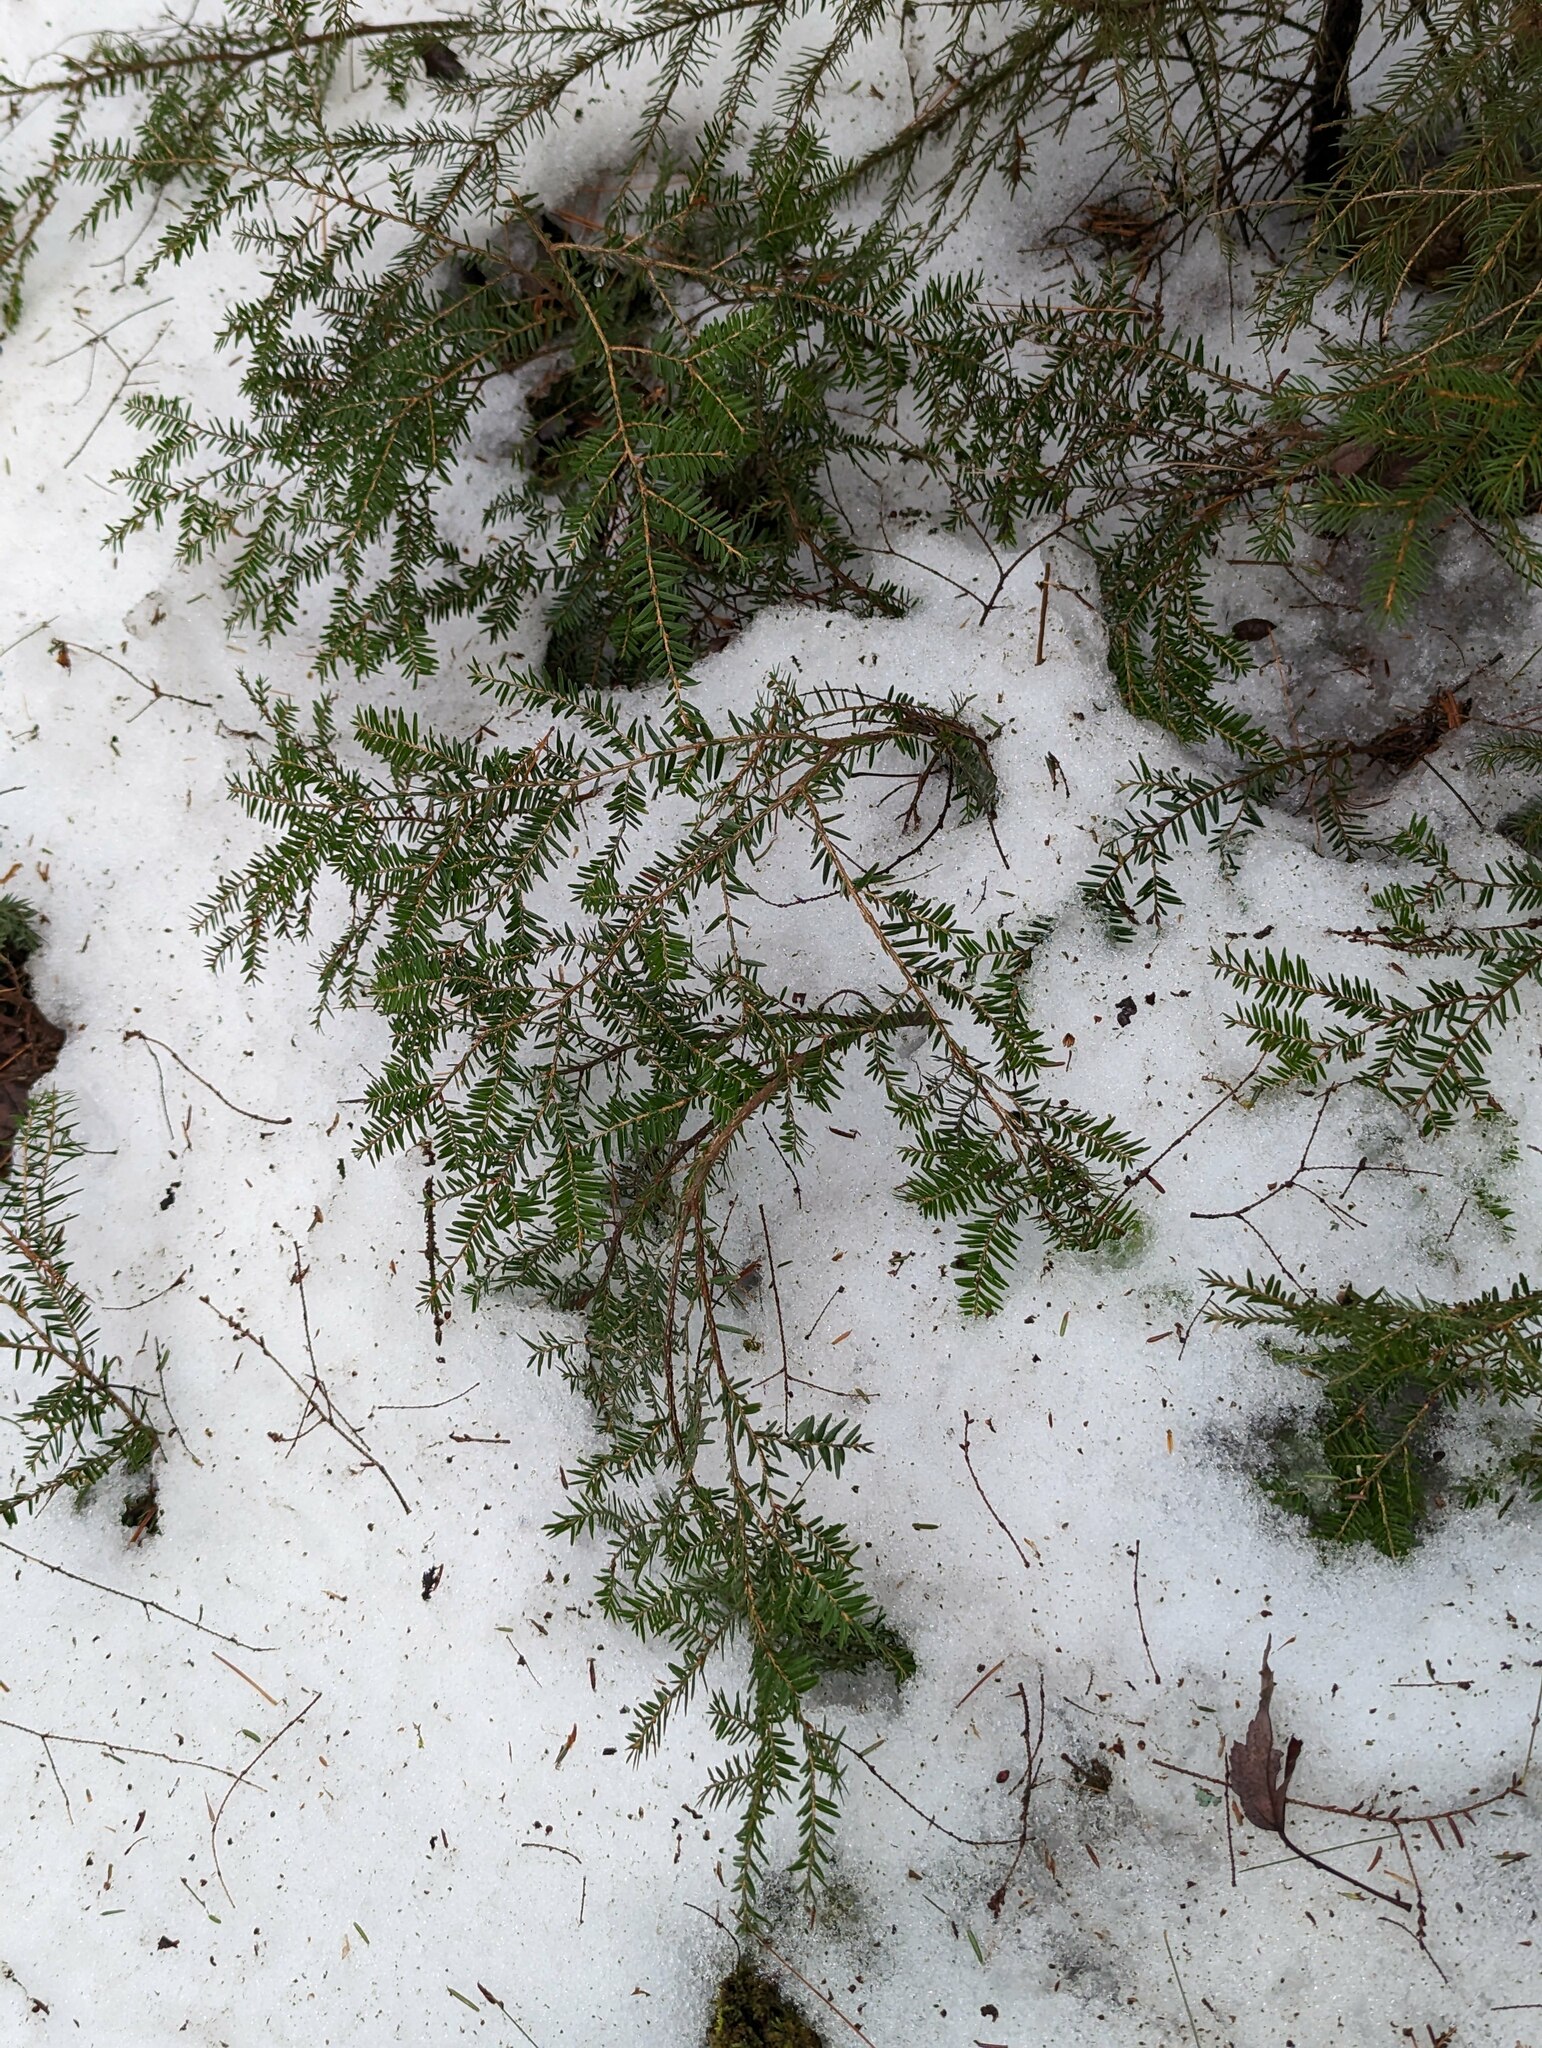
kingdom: Plantae
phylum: Tracheophyta
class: Pinopsida
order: Pinales
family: Pinaceae
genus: Tsuga
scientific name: Tsuga canadensis
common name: Eastern hemlock
